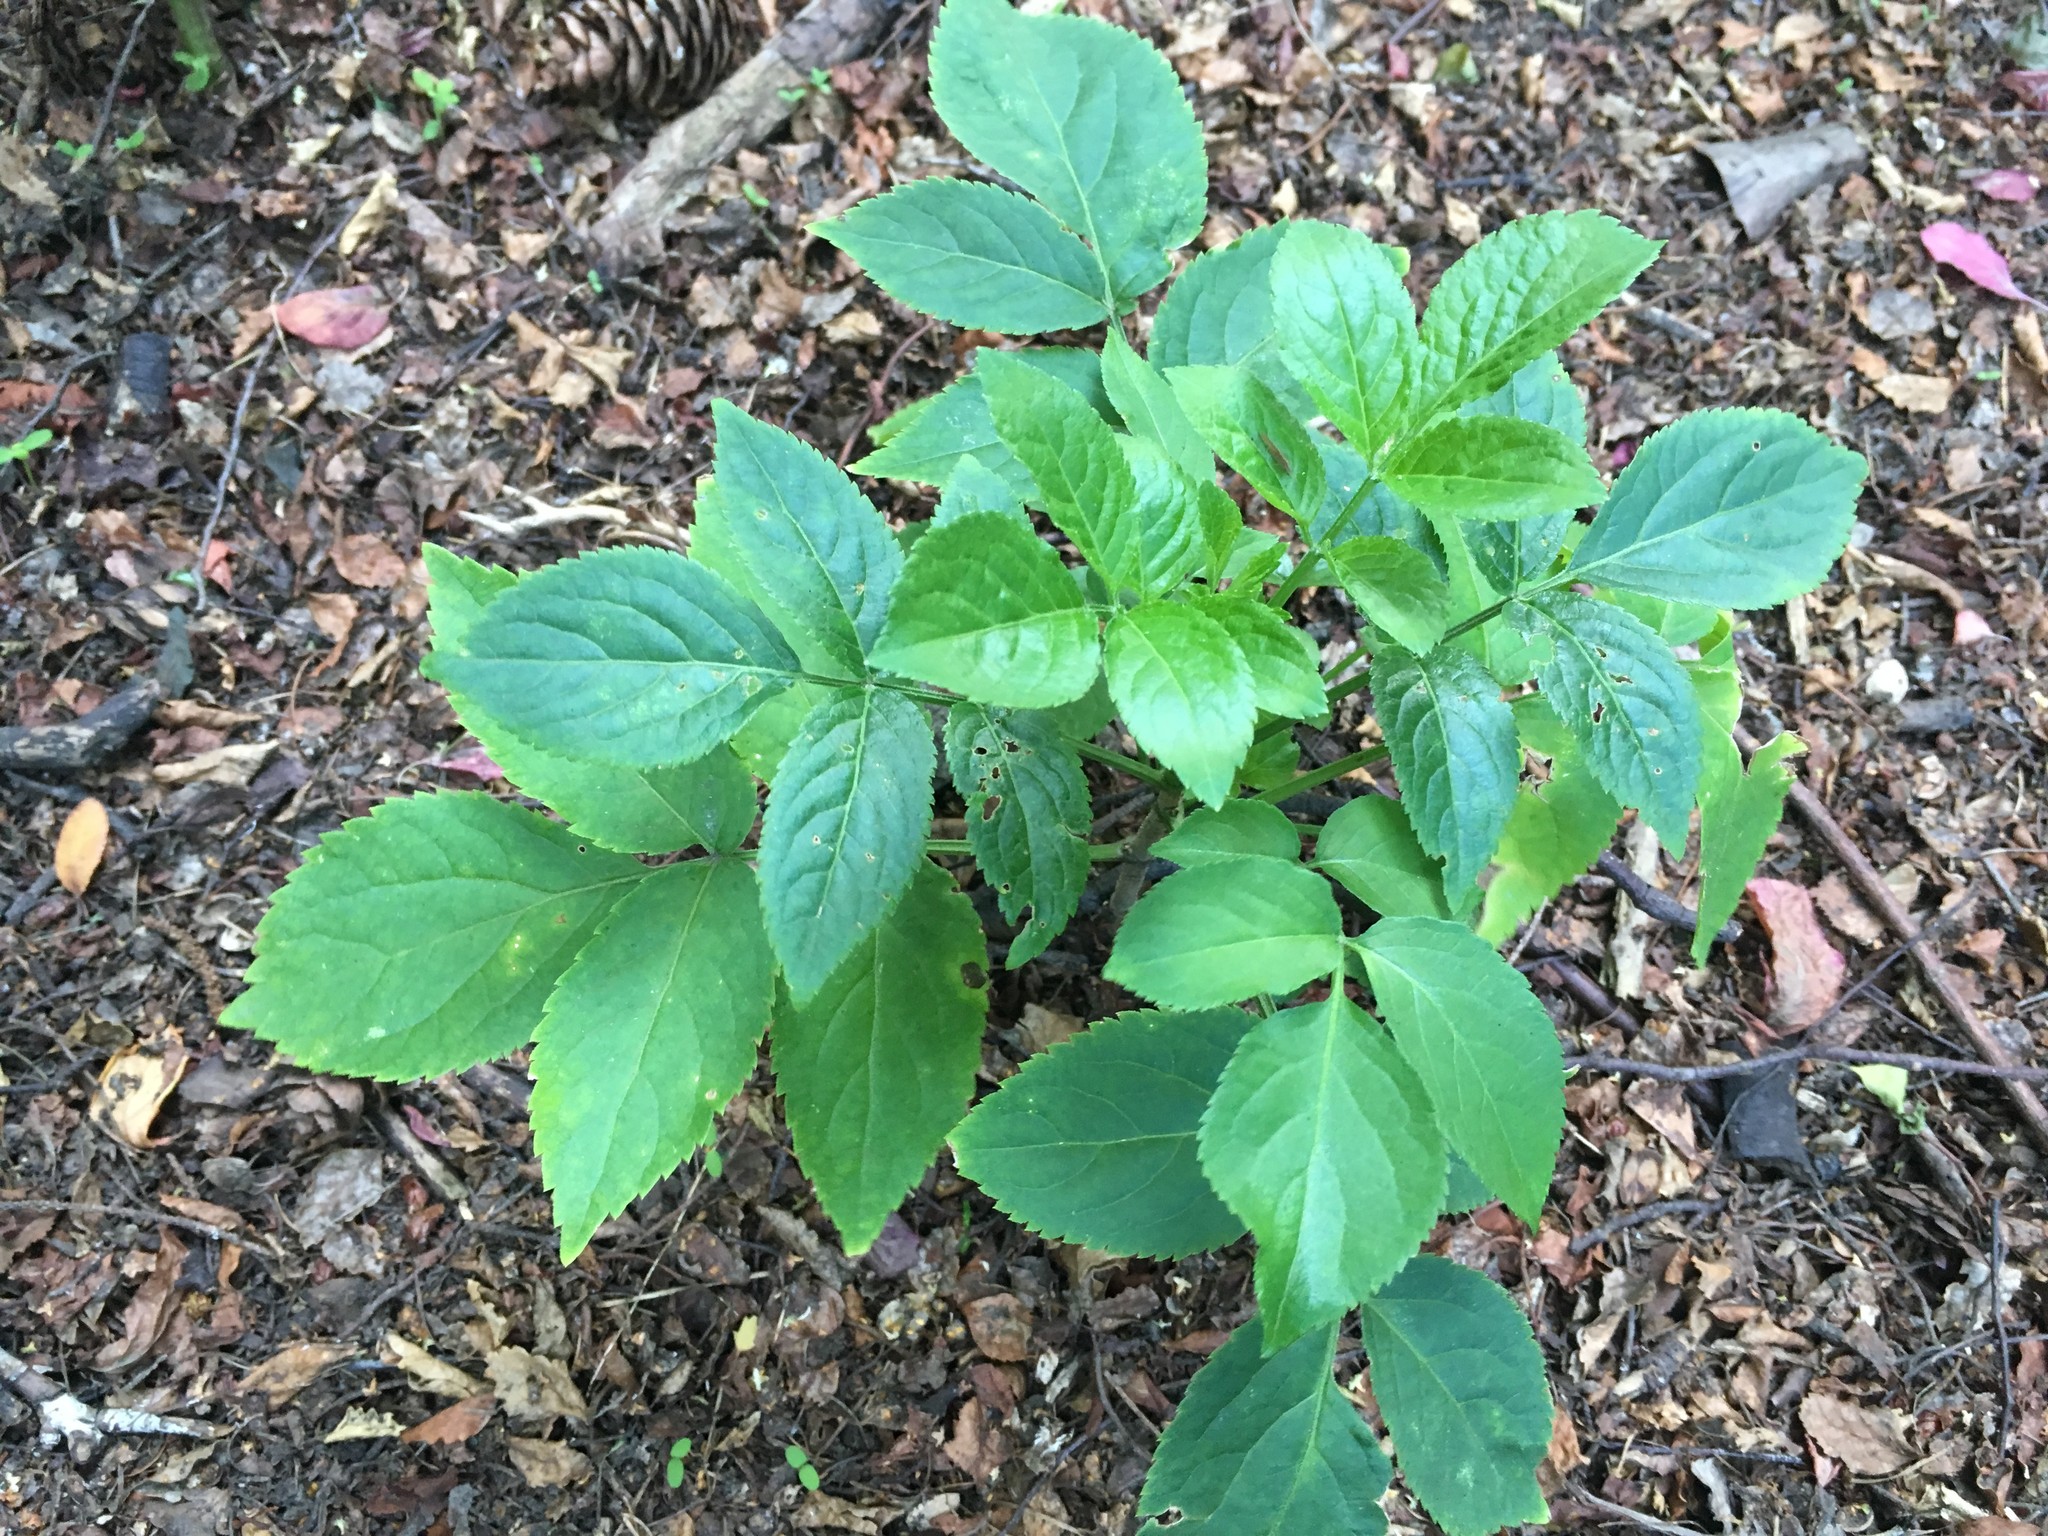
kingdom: Plantae
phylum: Tracheophyta
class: Magnoliopsida
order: Dipsacales
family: Viburnaceae
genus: Sambucus
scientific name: Sambucus nigra
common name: Elder
